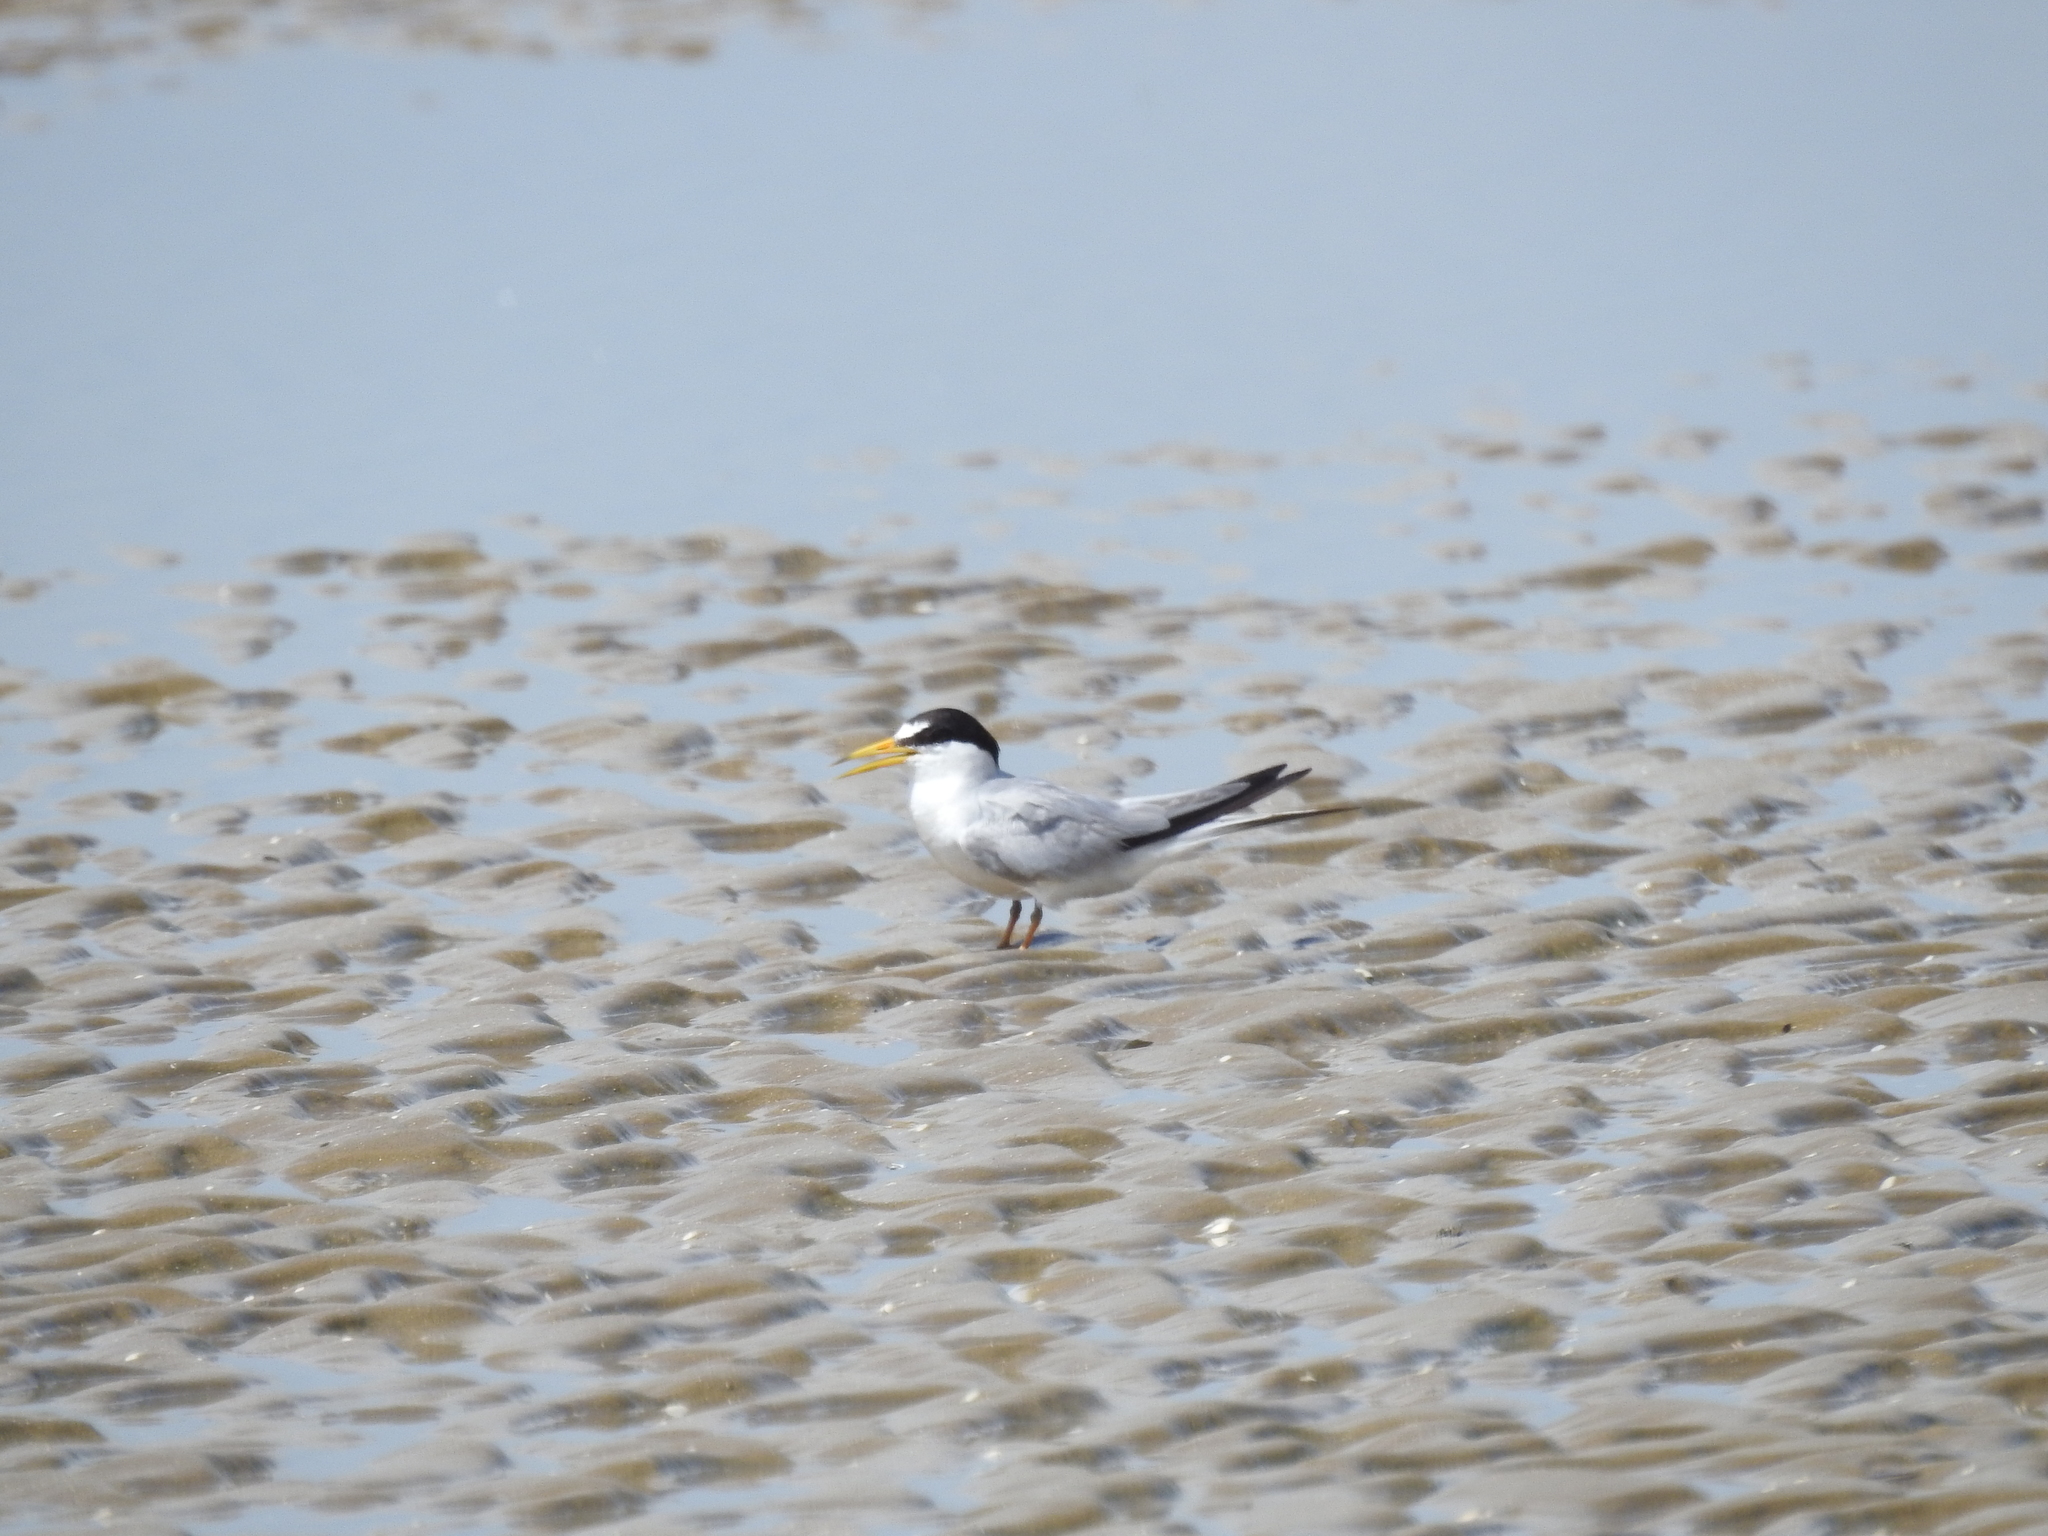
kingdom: Animalia
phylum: Chordata
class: Aves
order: Charadriiformes
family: Laridae
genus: Sternula
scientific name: Sternula antillarum
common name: Least tern
